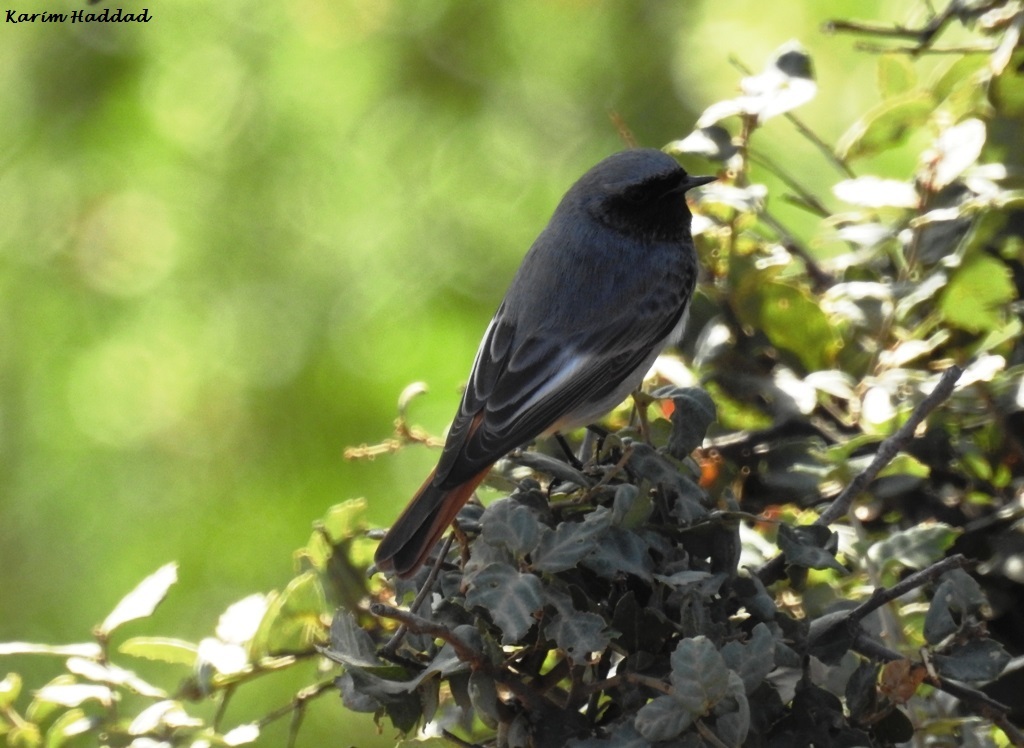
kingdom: Animalia
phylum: Chordata
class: Aves
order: Passeriformes
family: Muscicapidae
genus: Phoenicurus
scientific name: Phoenicurus ochruros
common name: Black redstart
